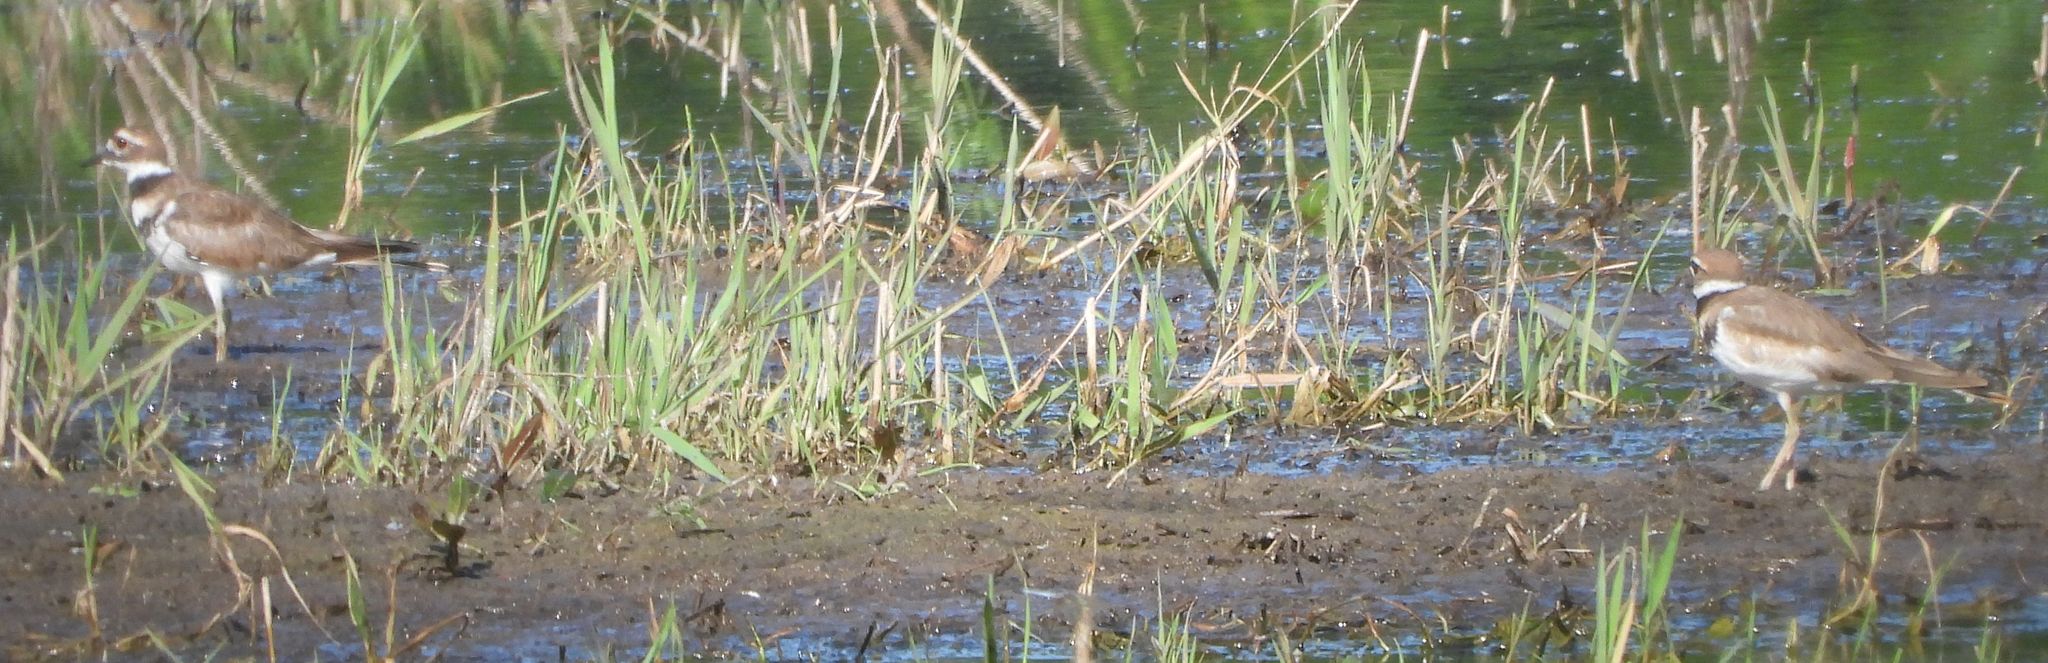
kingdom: Animalia
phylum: Chordata
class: Aves
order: Charadriiformes
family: Charadriidae
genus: Charadrius
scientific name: Charadrius vociferus
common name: Killdeer
